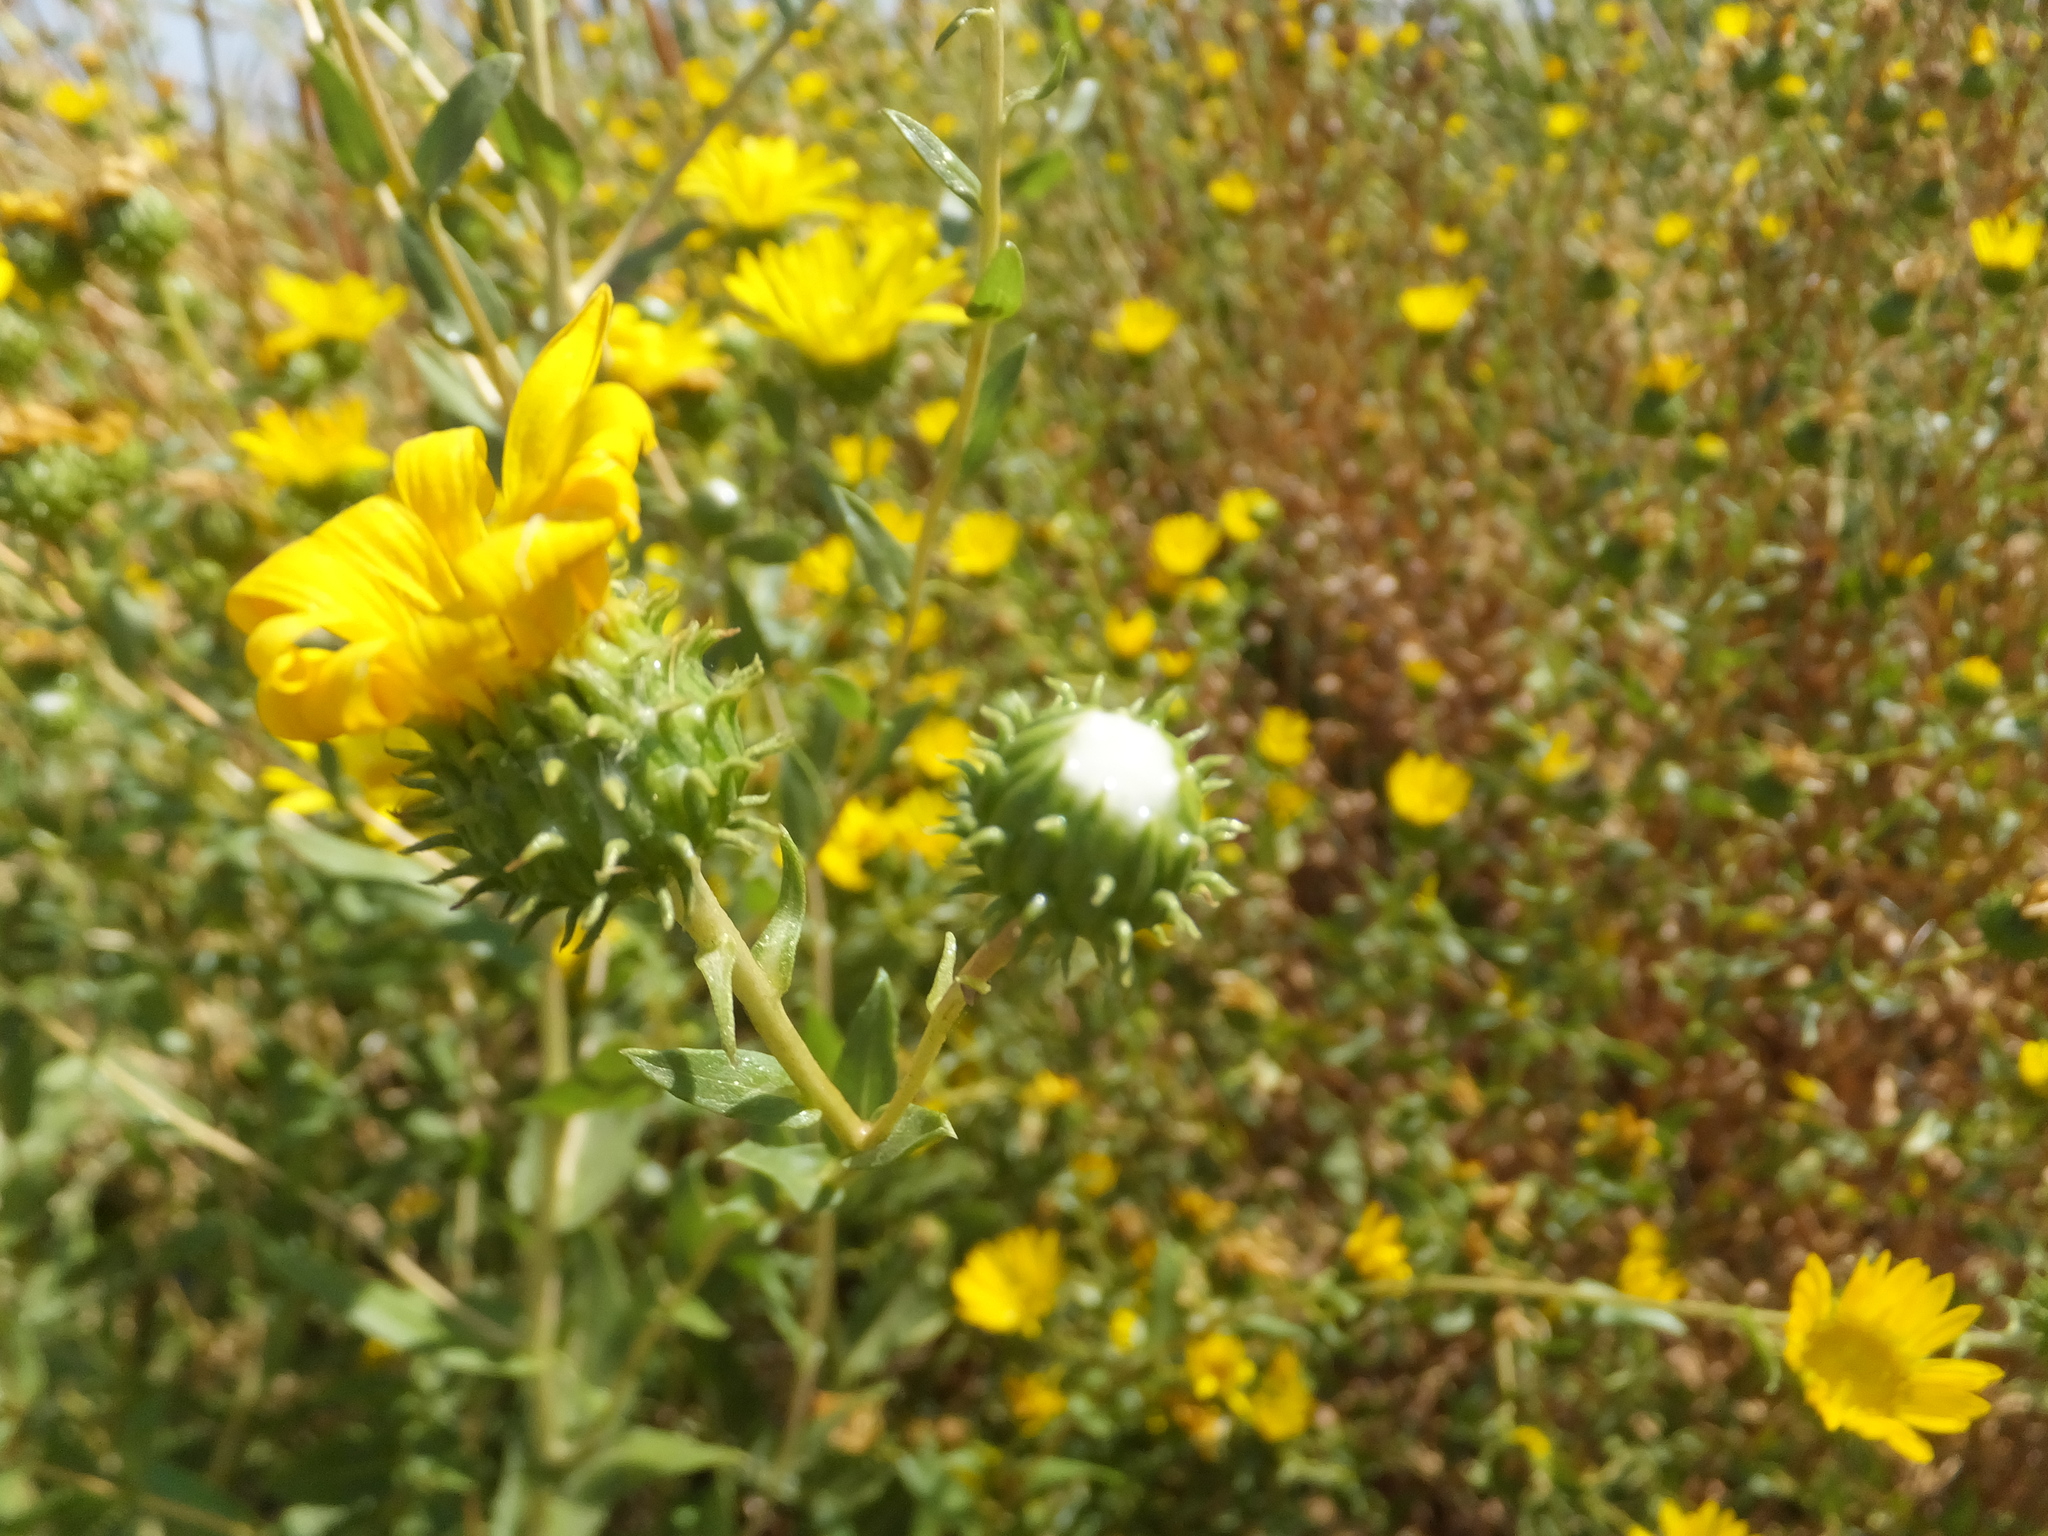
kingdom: Plantae
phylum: Tracheophyta
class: Magnoliopsida
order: Asterales
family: Asteraceae
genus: Grindelia
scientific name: Grindelia hirsutula
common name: Hairy gumweed
